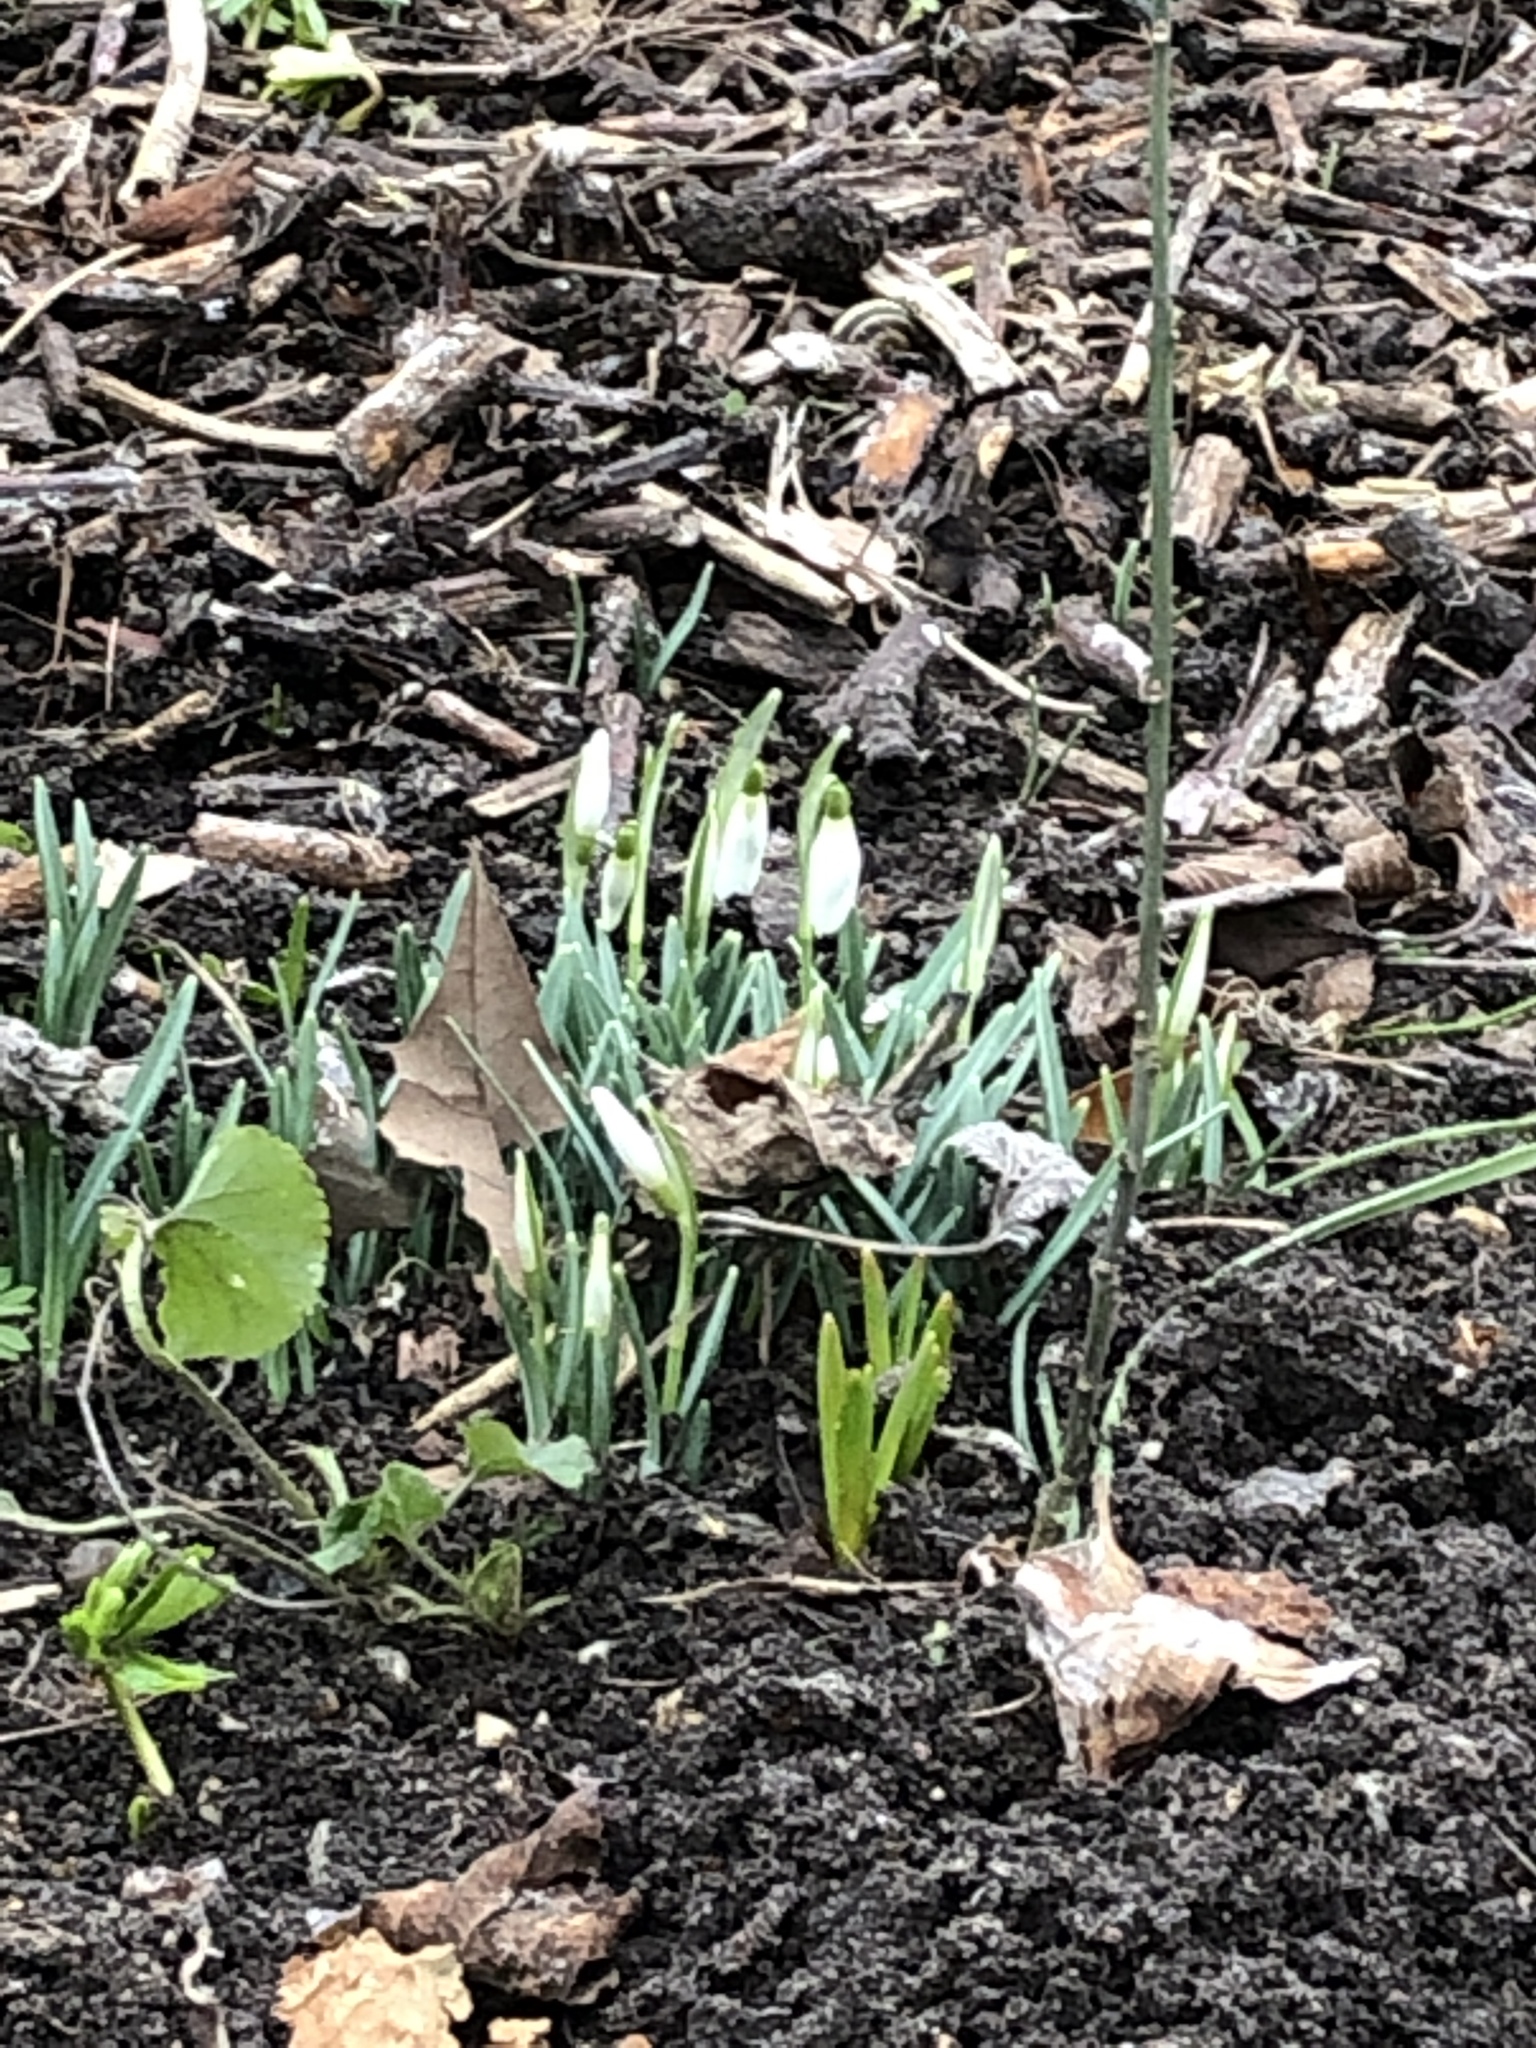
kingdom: Plantae
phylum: Tracheophyta
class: Liliopsida
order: Asparagales
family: Amaryllidaceae
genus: Galanthus
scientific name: Galanthus nivalis
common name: Snowdrop
